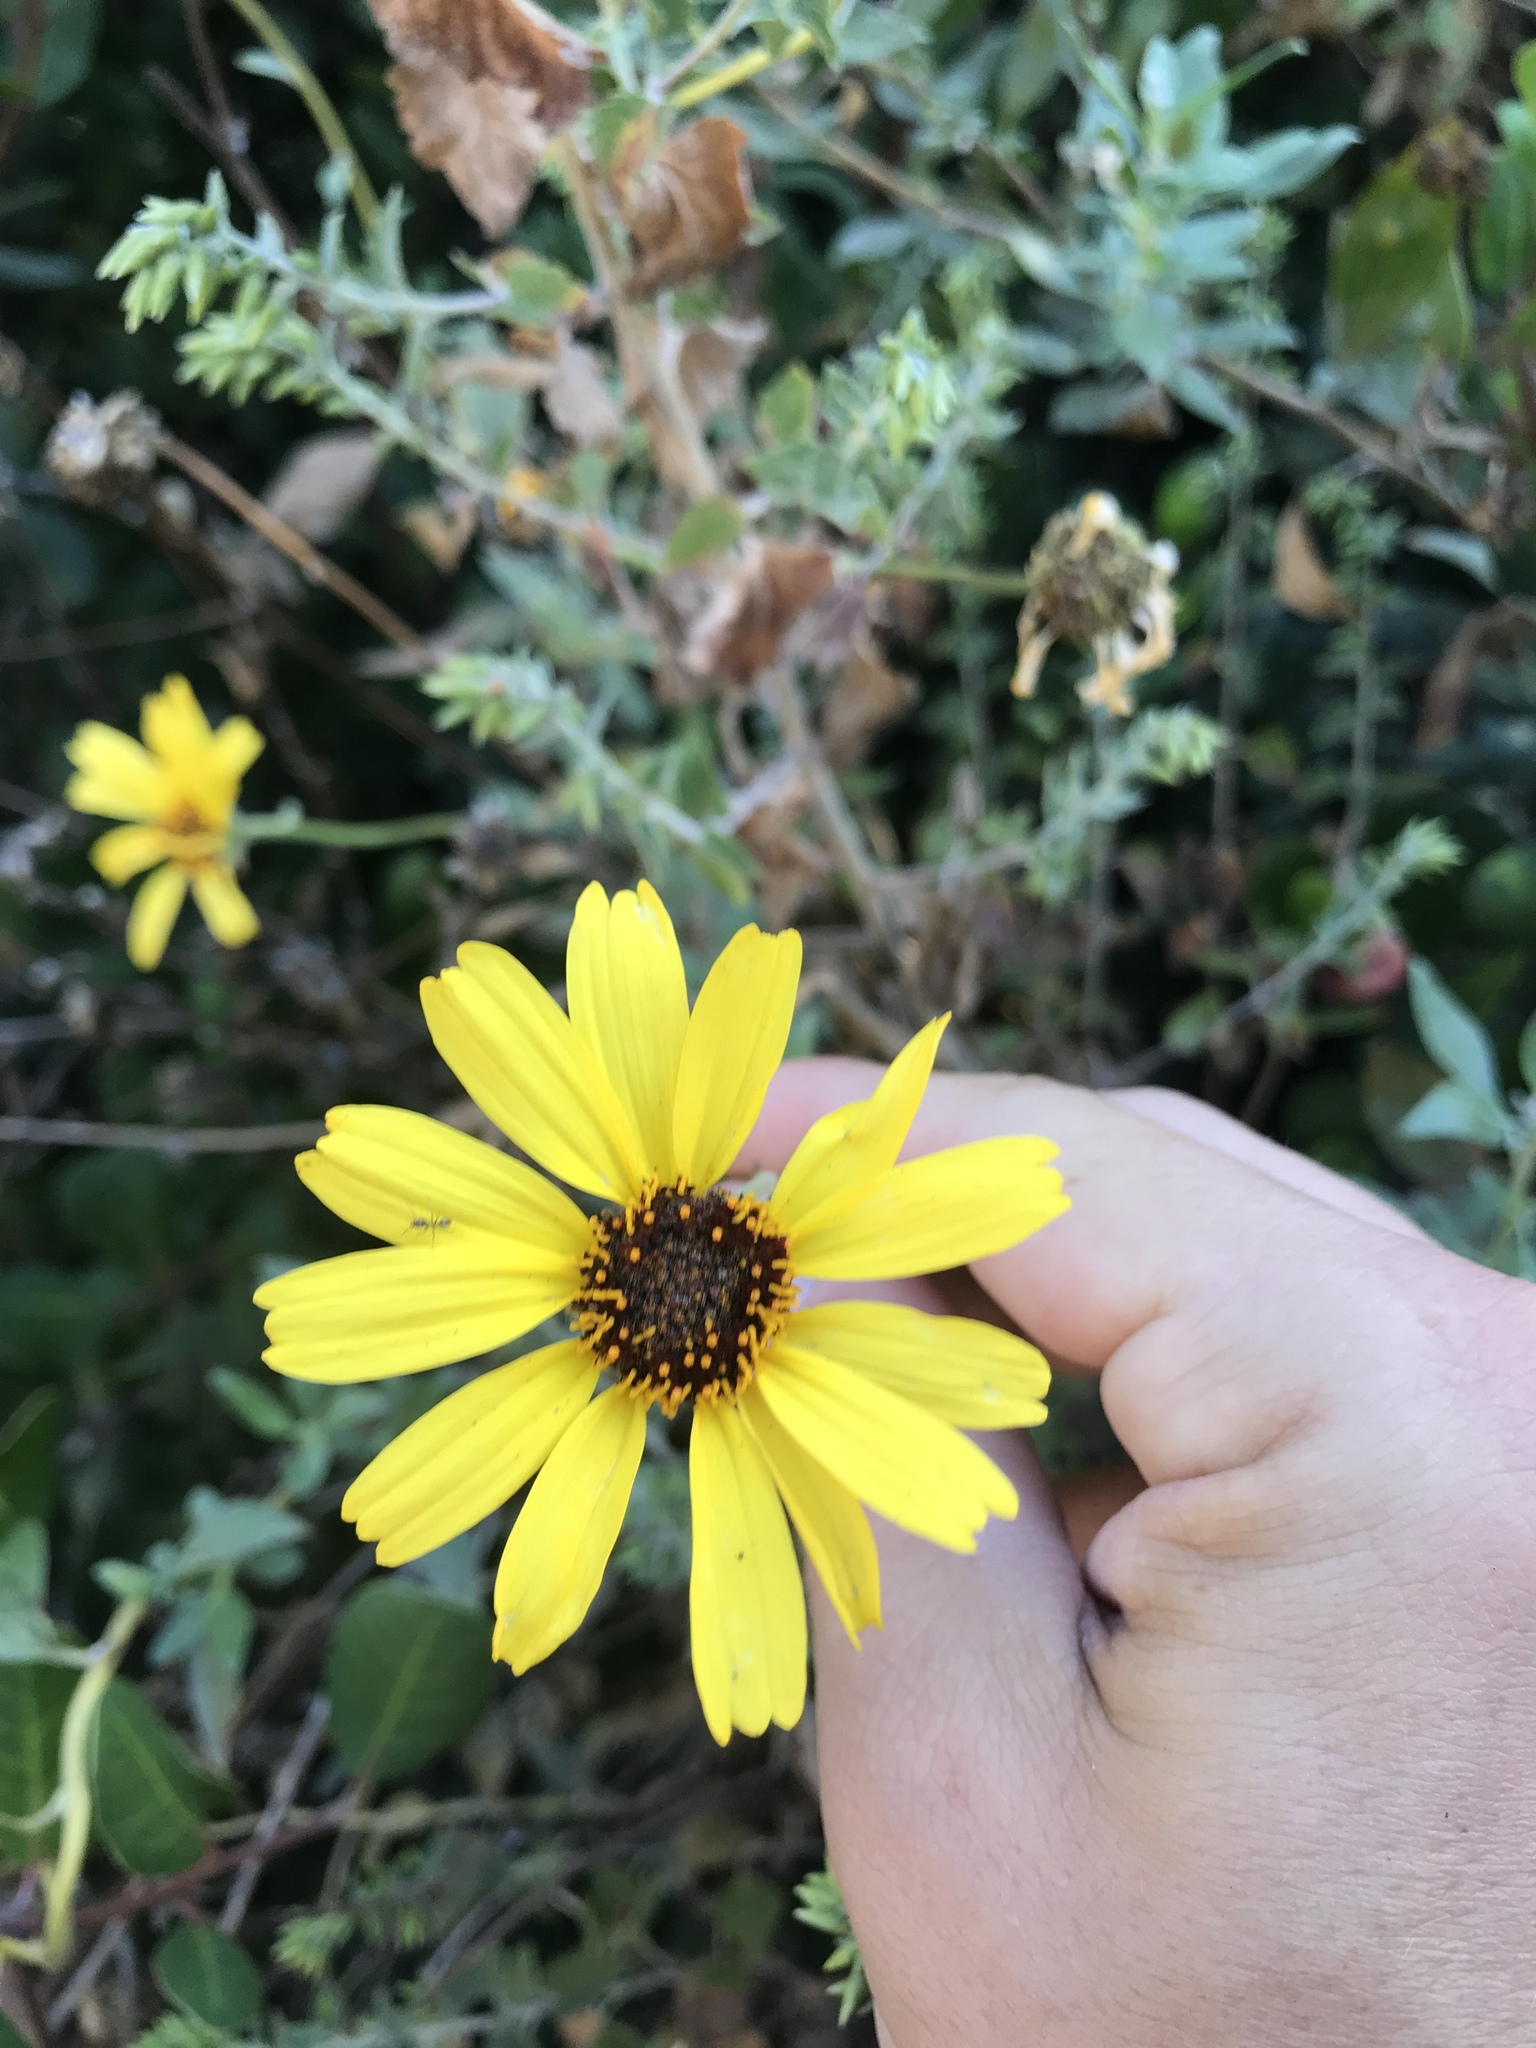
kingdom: Plantae
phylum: Tracheophyta
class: Magnoliopsida
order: Asterales
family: Asteraceae
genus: Encelia
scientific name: Encelia californica
